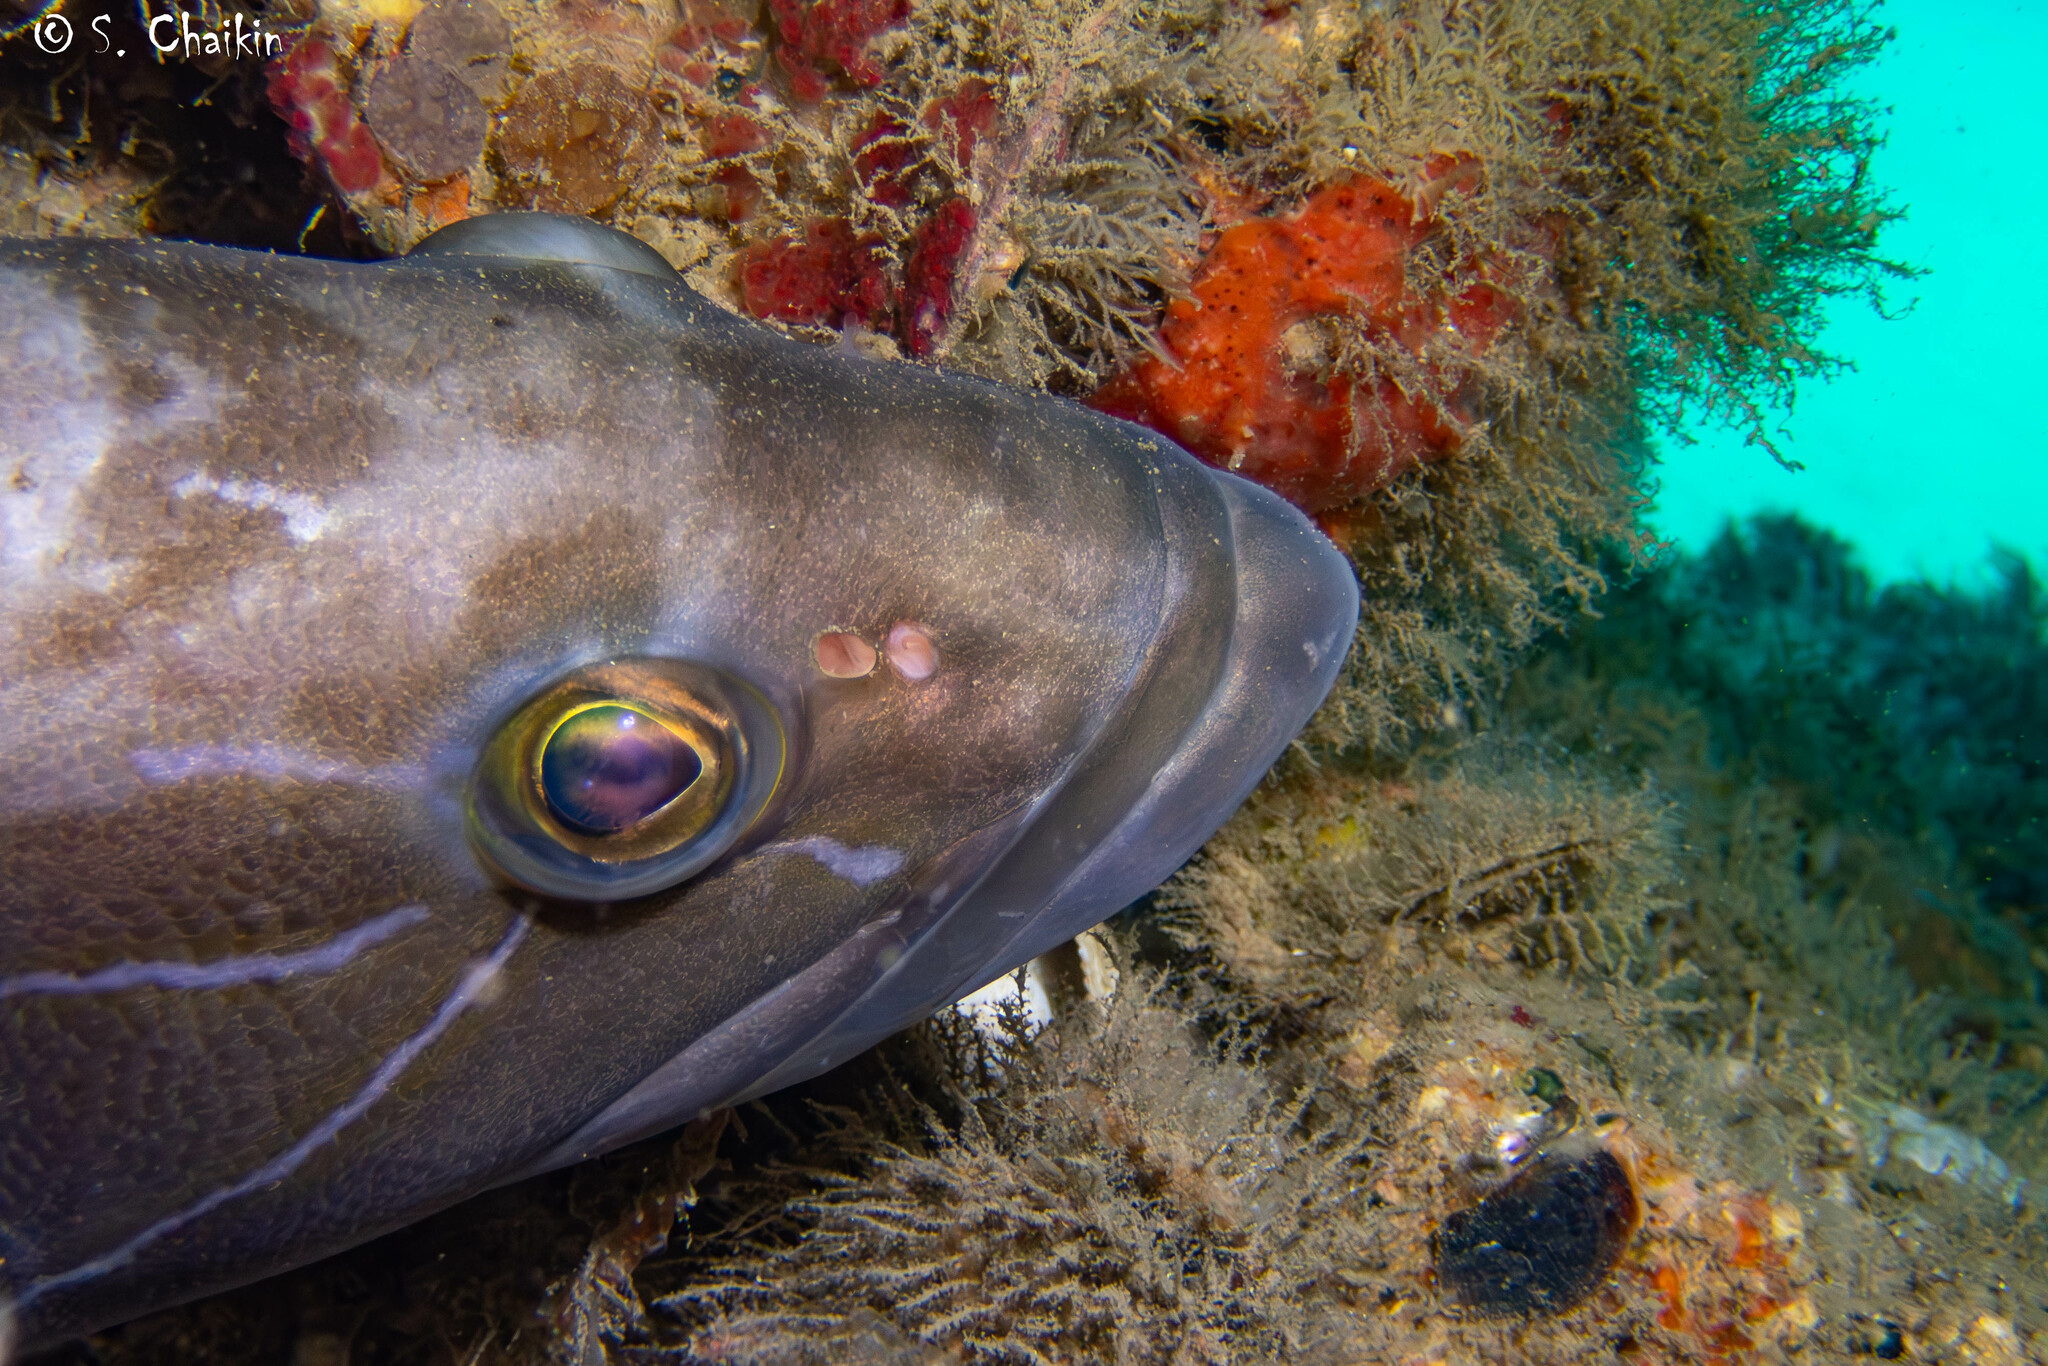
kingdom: Animalia
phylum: Chordata
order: Perciformes
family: Serranidae
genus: Epinephelus
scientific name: Epinephelus aeneus
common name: White grouper
